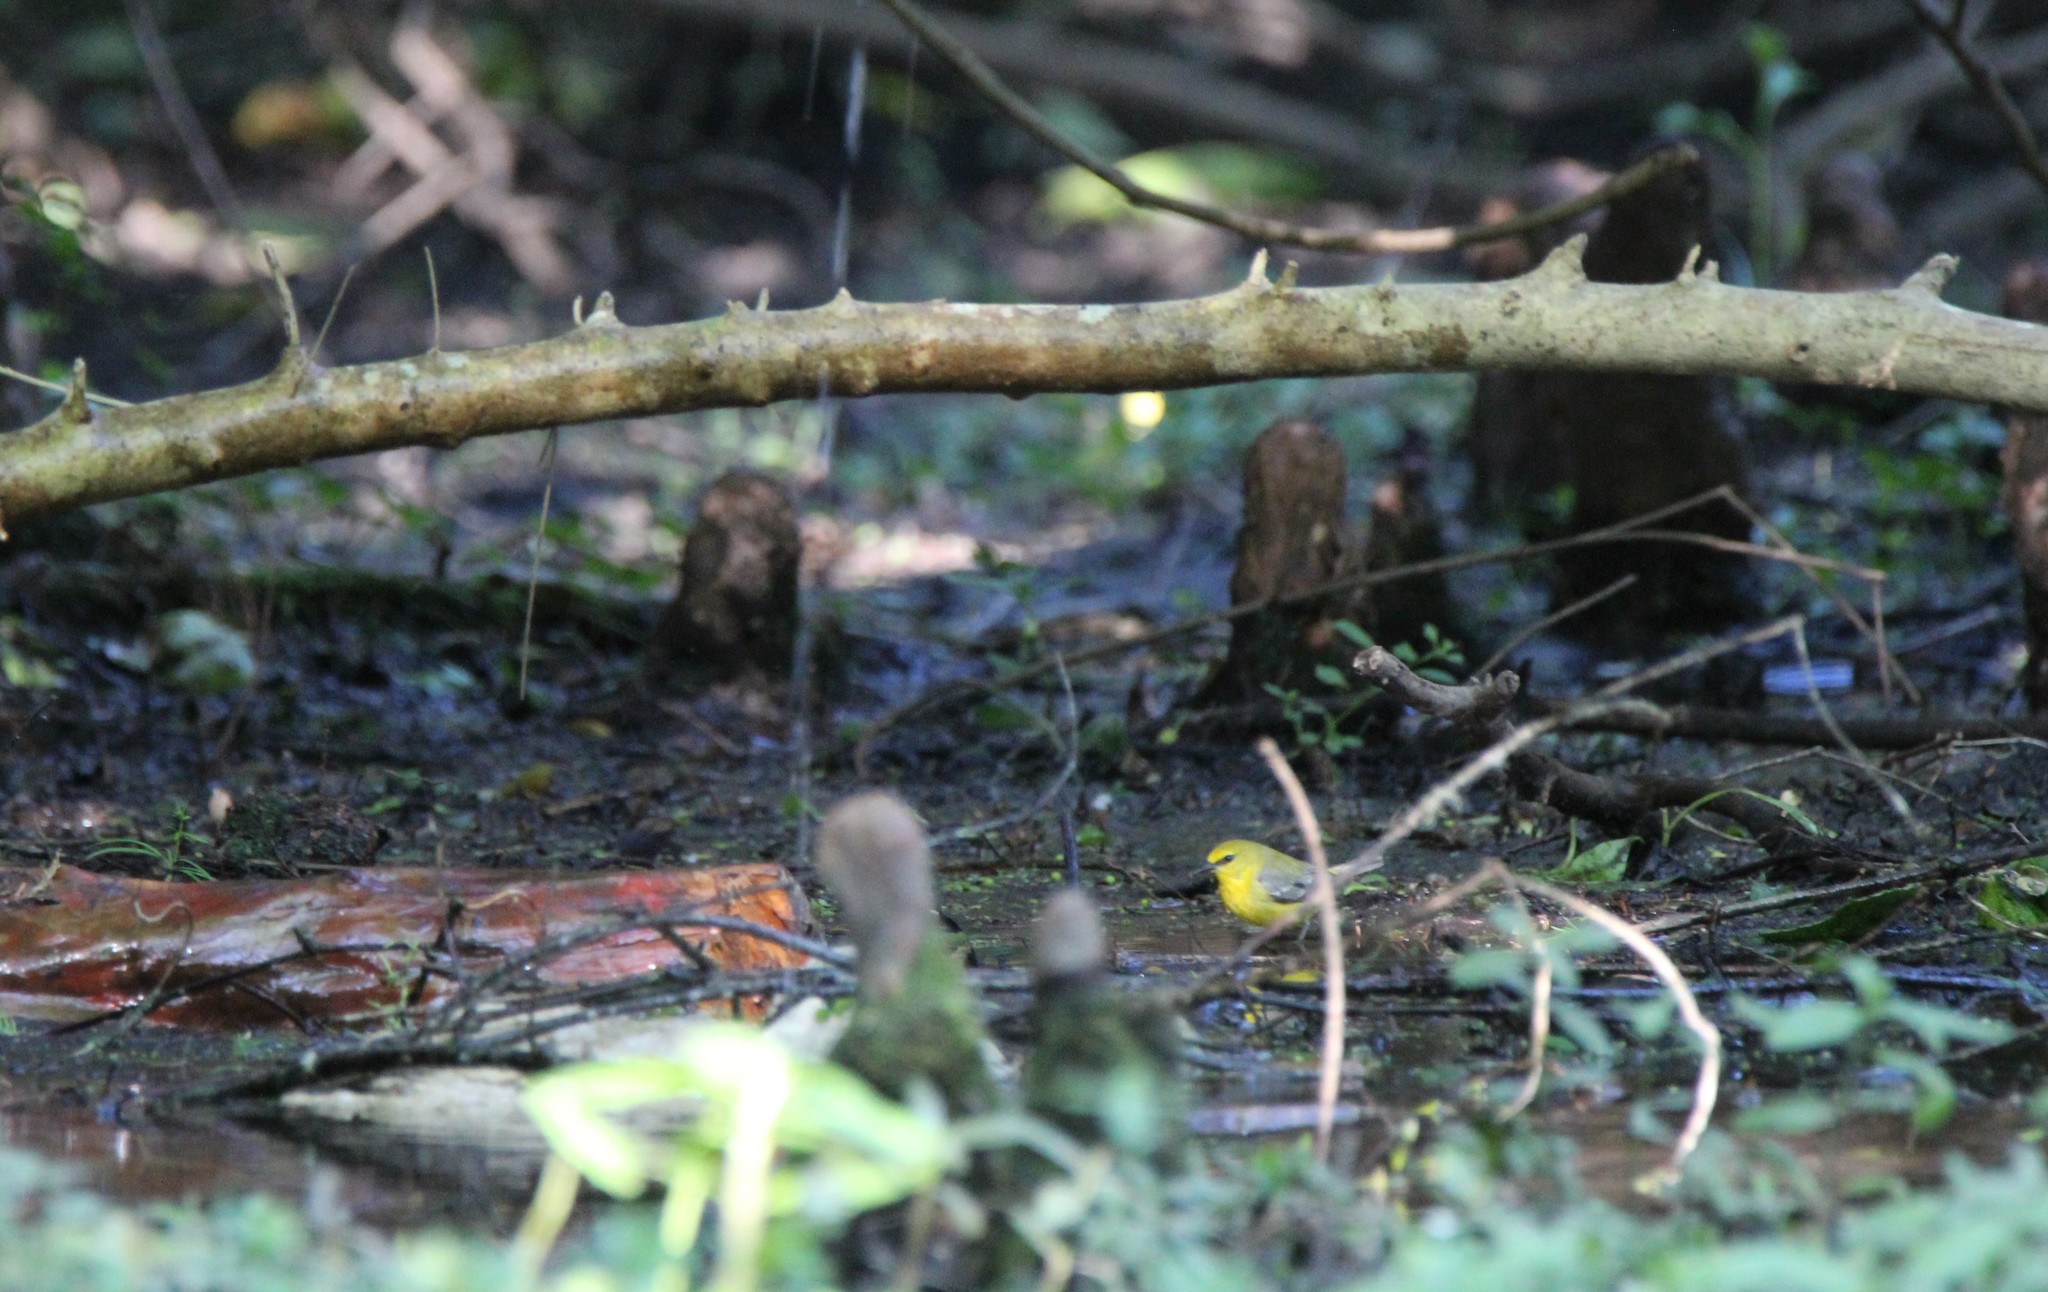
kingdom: Animalia
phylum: Chordata
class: Aves
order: Passeriformes
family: Parulidae
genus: Vermivora
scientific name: Vermivora cyanoptera
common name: Blue-winged warbler
